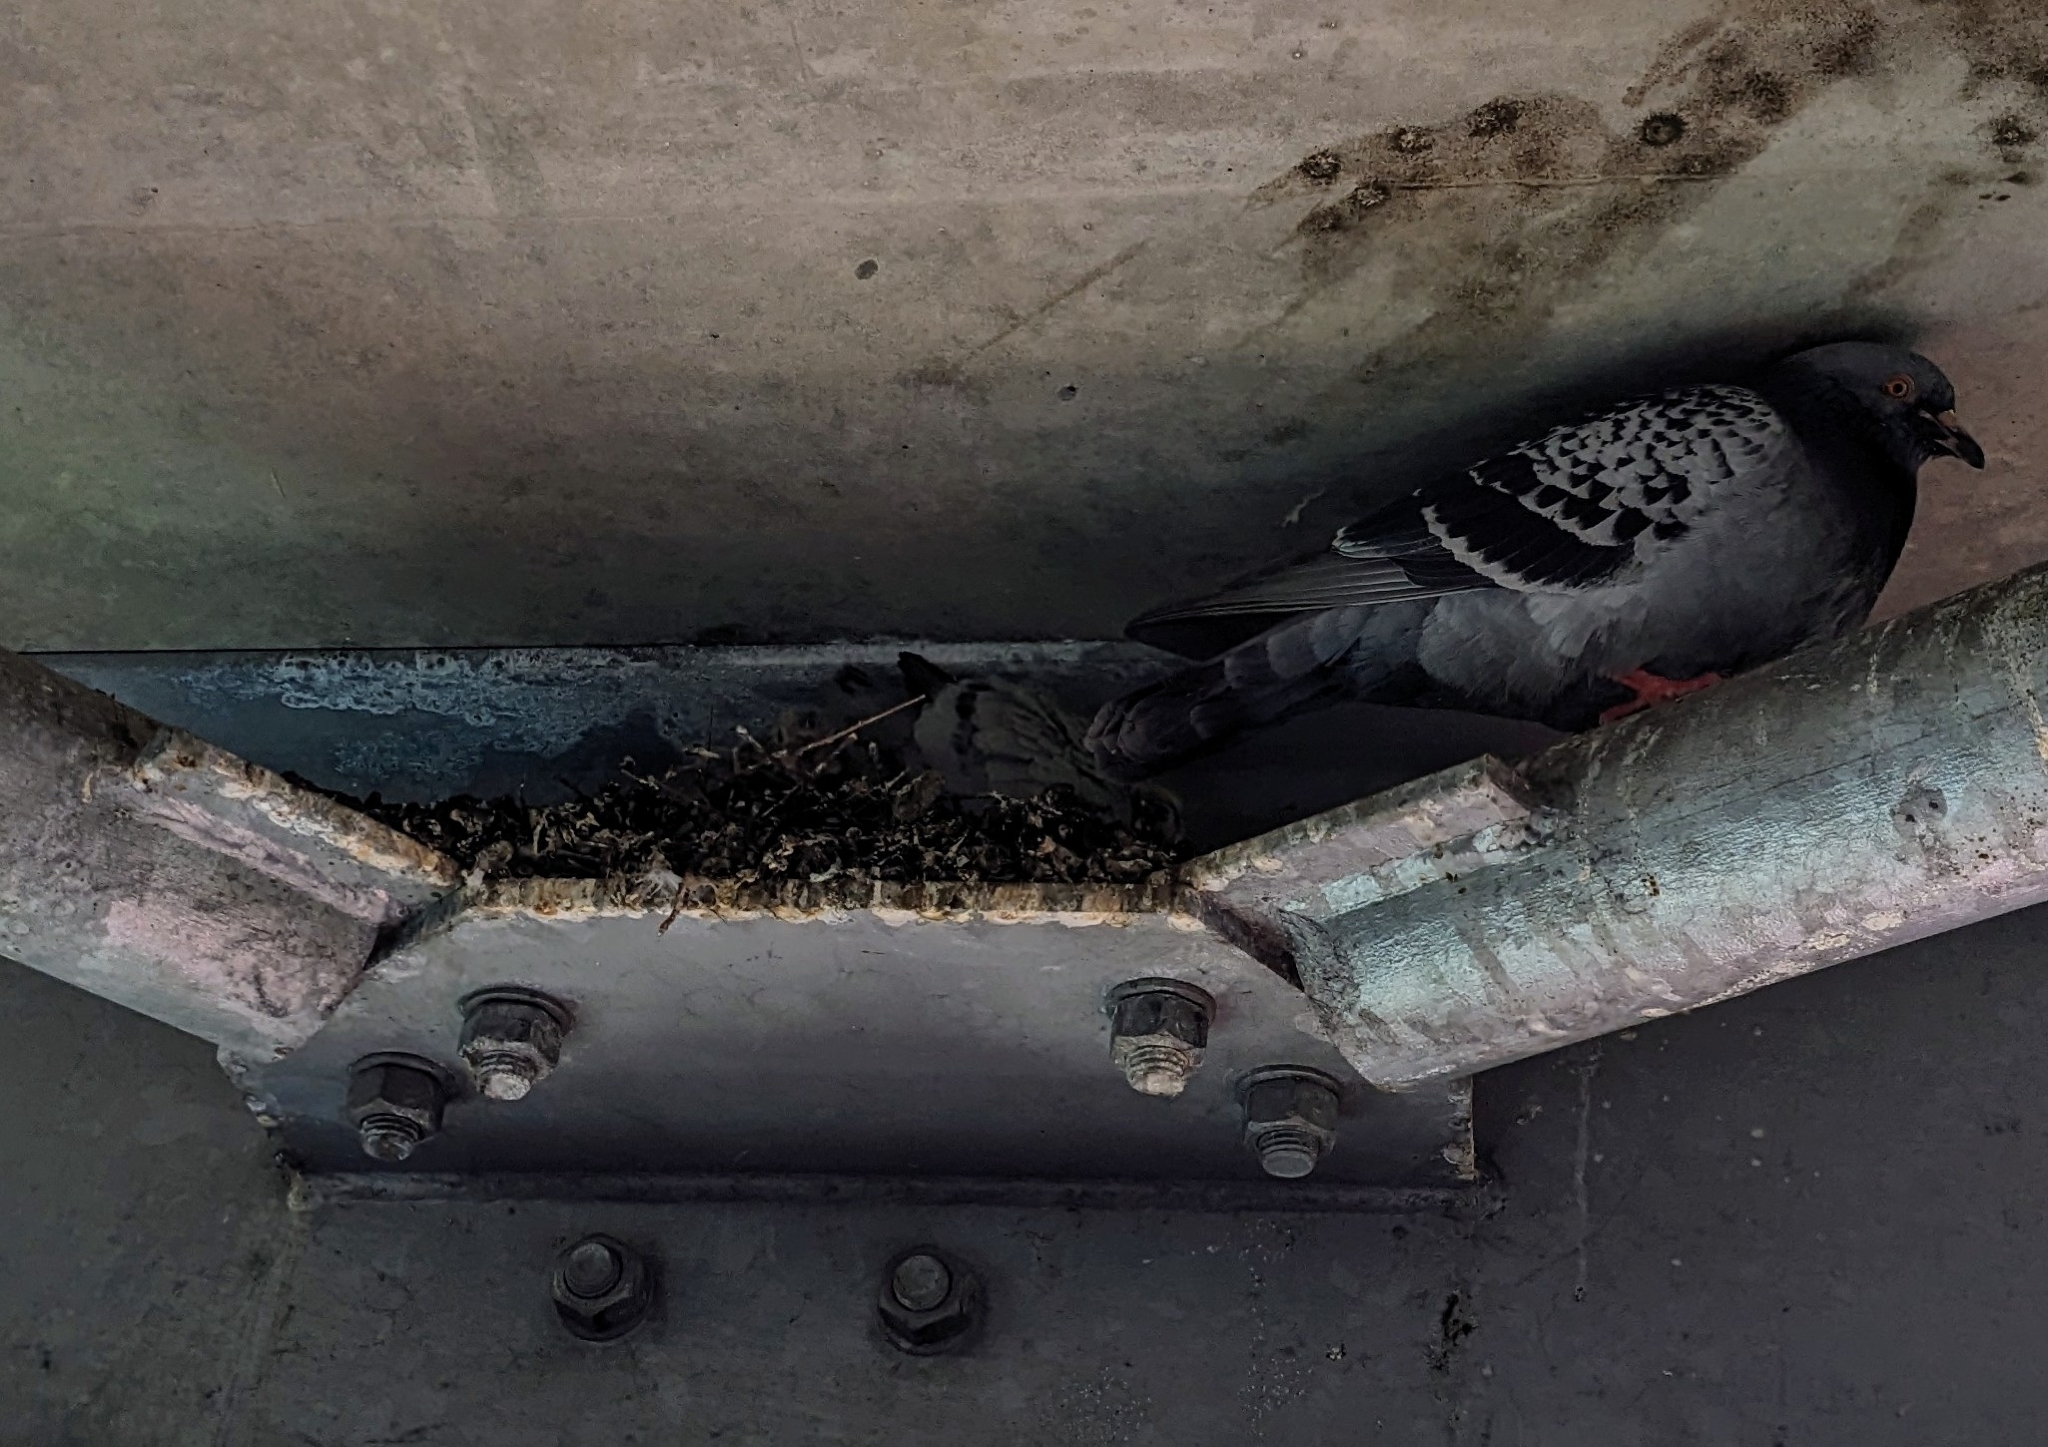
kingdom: Animalia
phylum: Chordata
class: Aves
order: Columbiformes
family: Columbidae
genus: Columba
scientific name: Columba livia
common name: Rock pigeon
